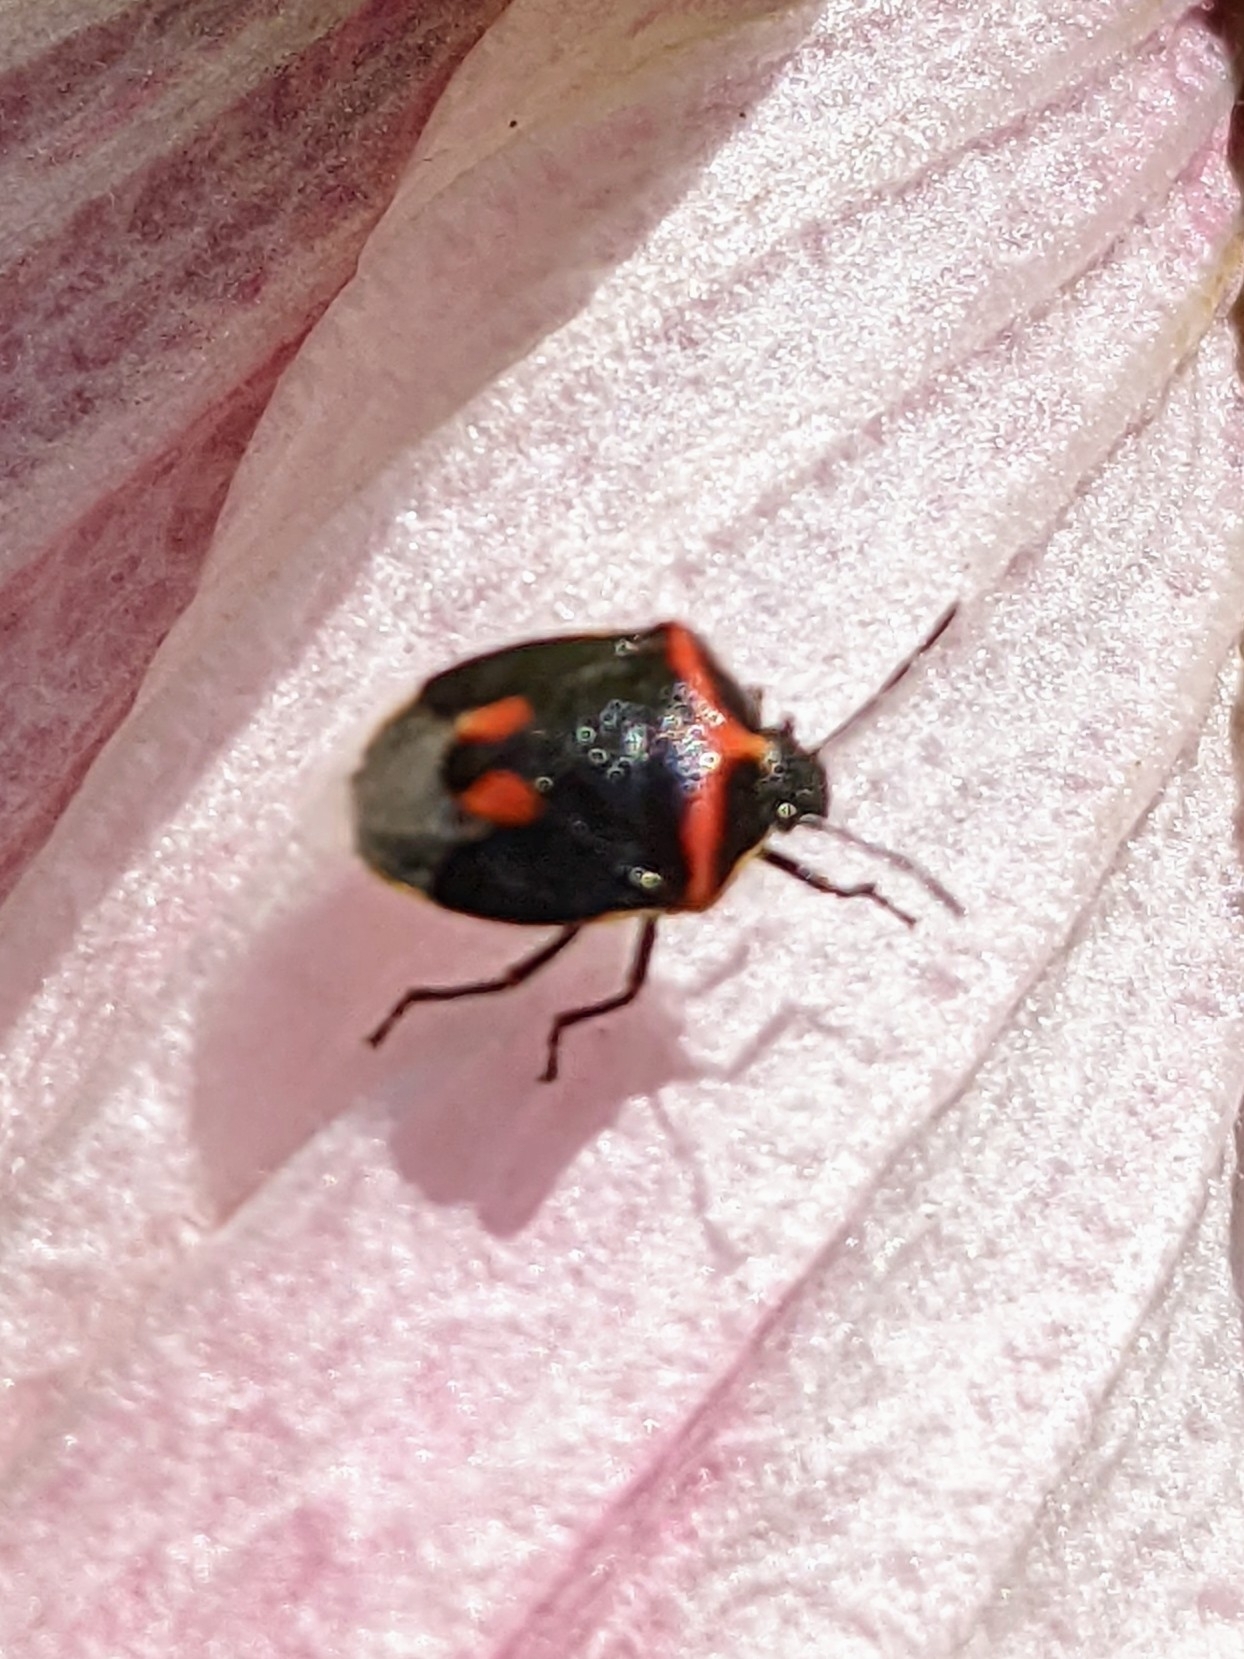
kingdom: Animalia
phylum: Arthropoda
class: Insecta
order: Hemiptera
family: Pentatomidae
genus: Cosmopepla
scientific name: Cosmopepla lintneriana
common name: Twice-stabbed stink bug
